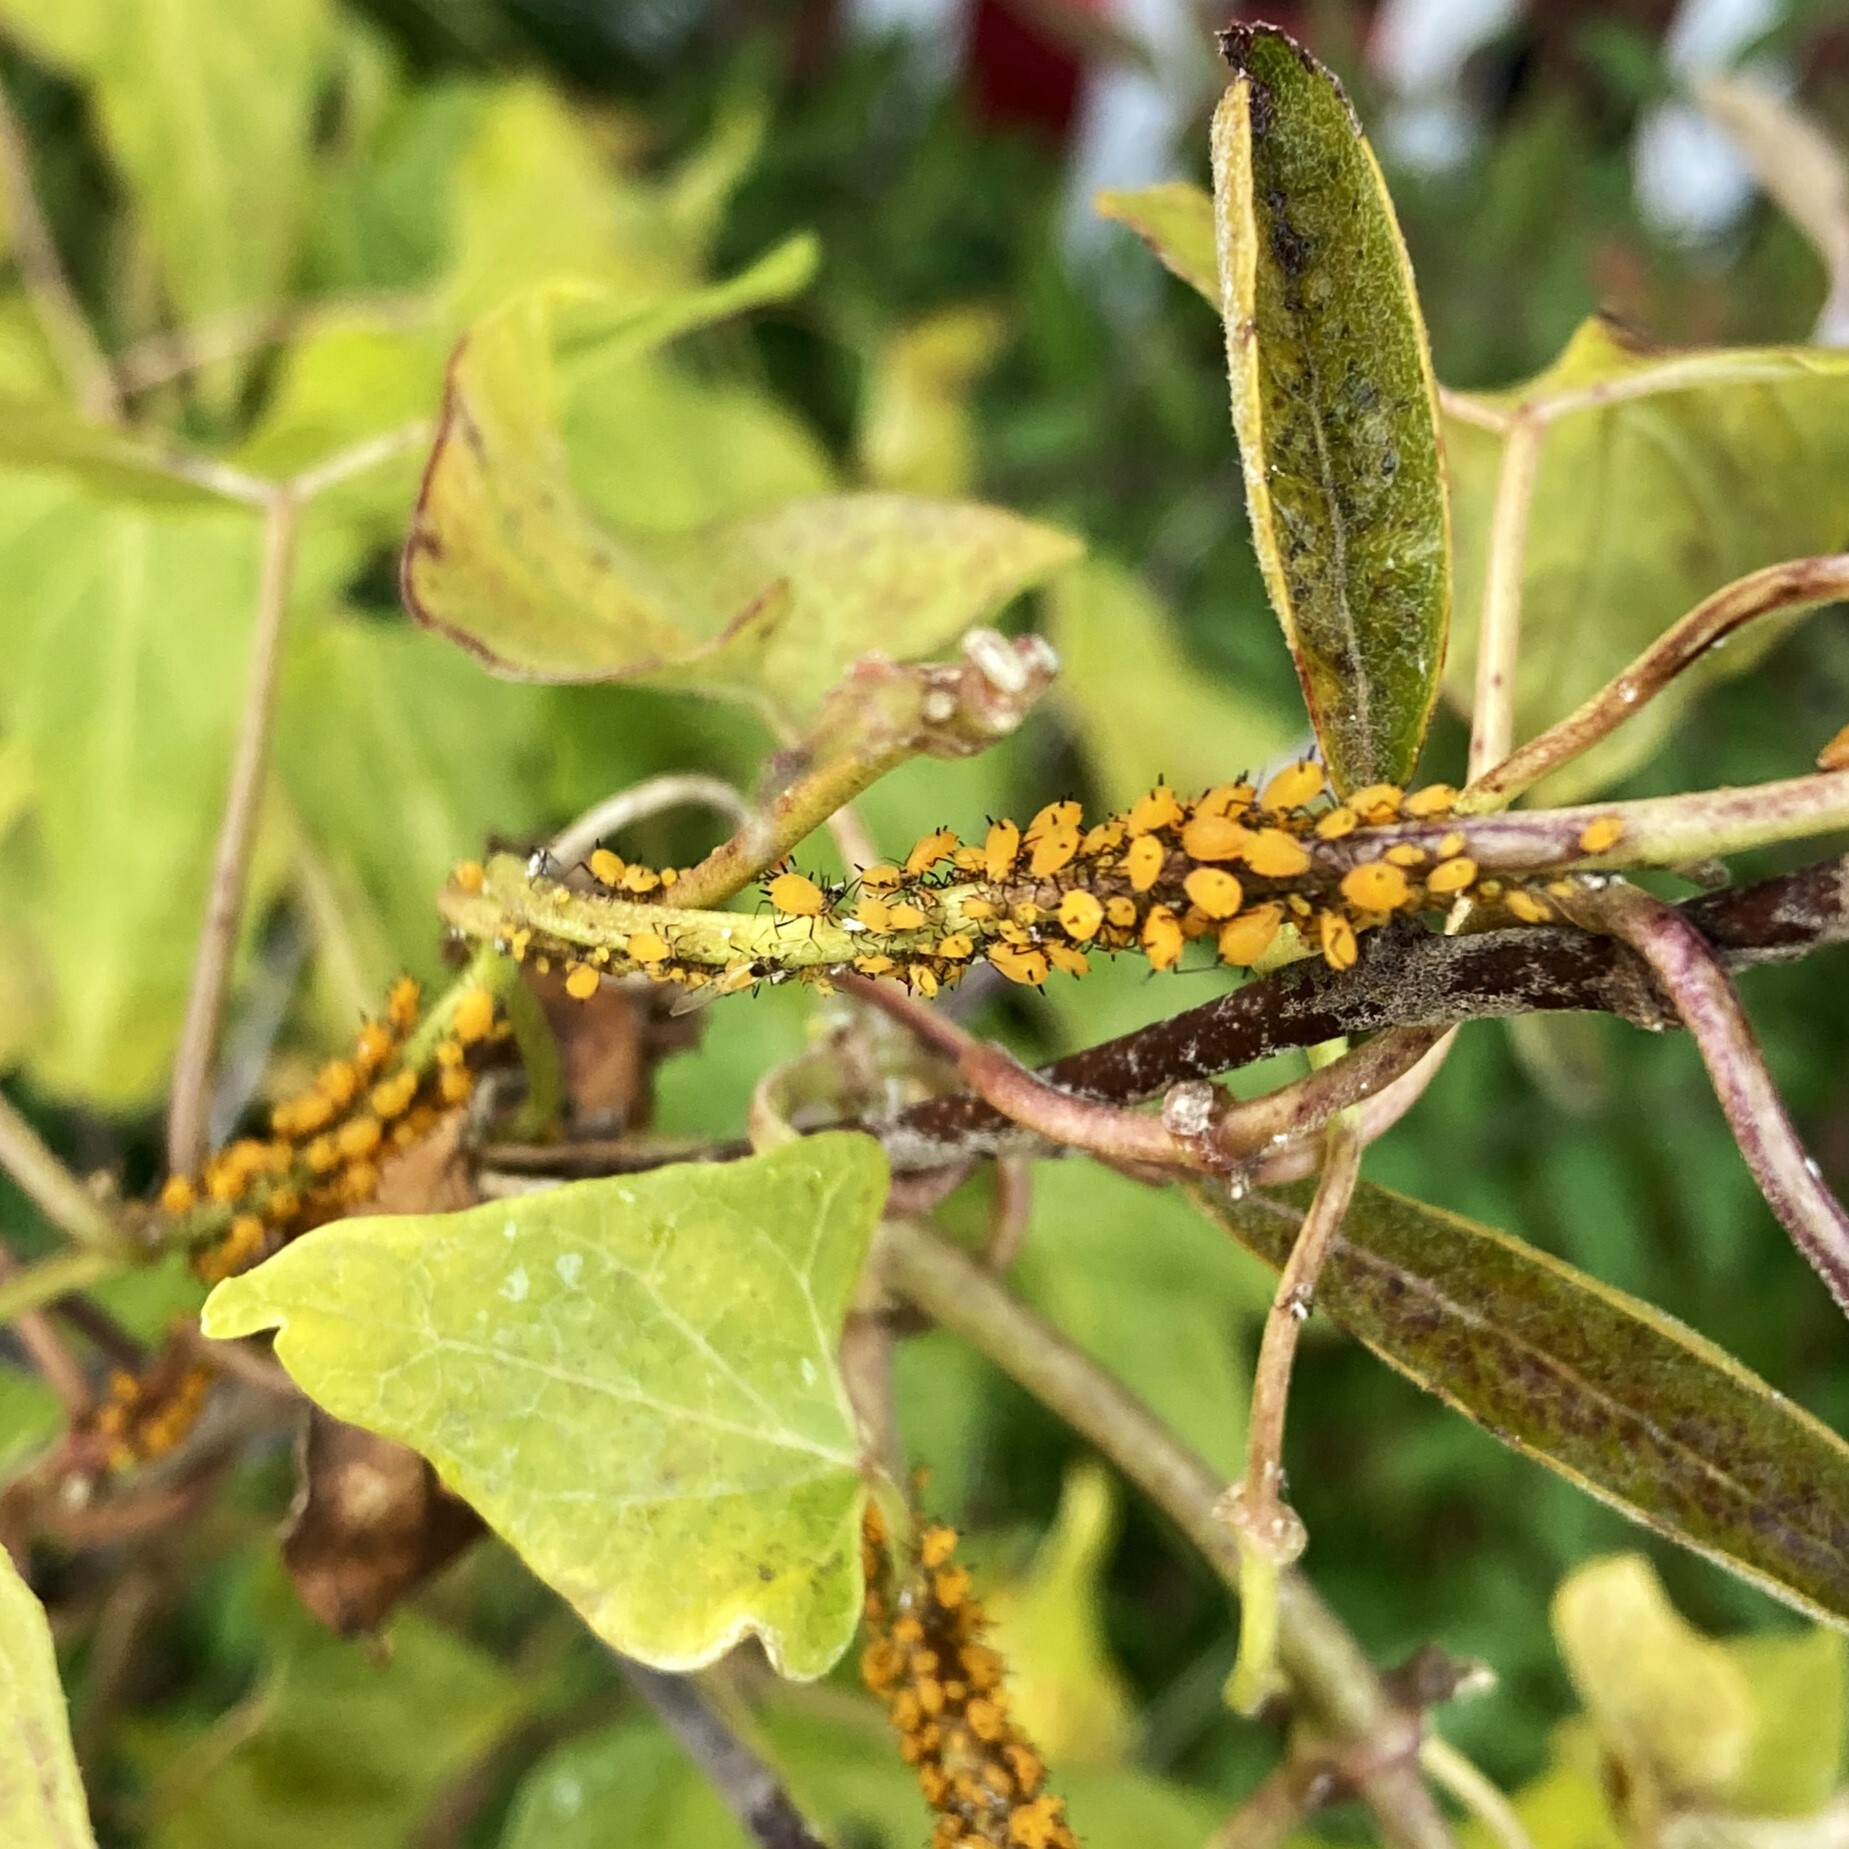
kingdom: Animalia
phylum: Arthropoda
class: Insecta
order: Hemiptera
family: Aphididae
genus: Aphis
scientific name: Aphis nerii
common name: Oleander aphid
